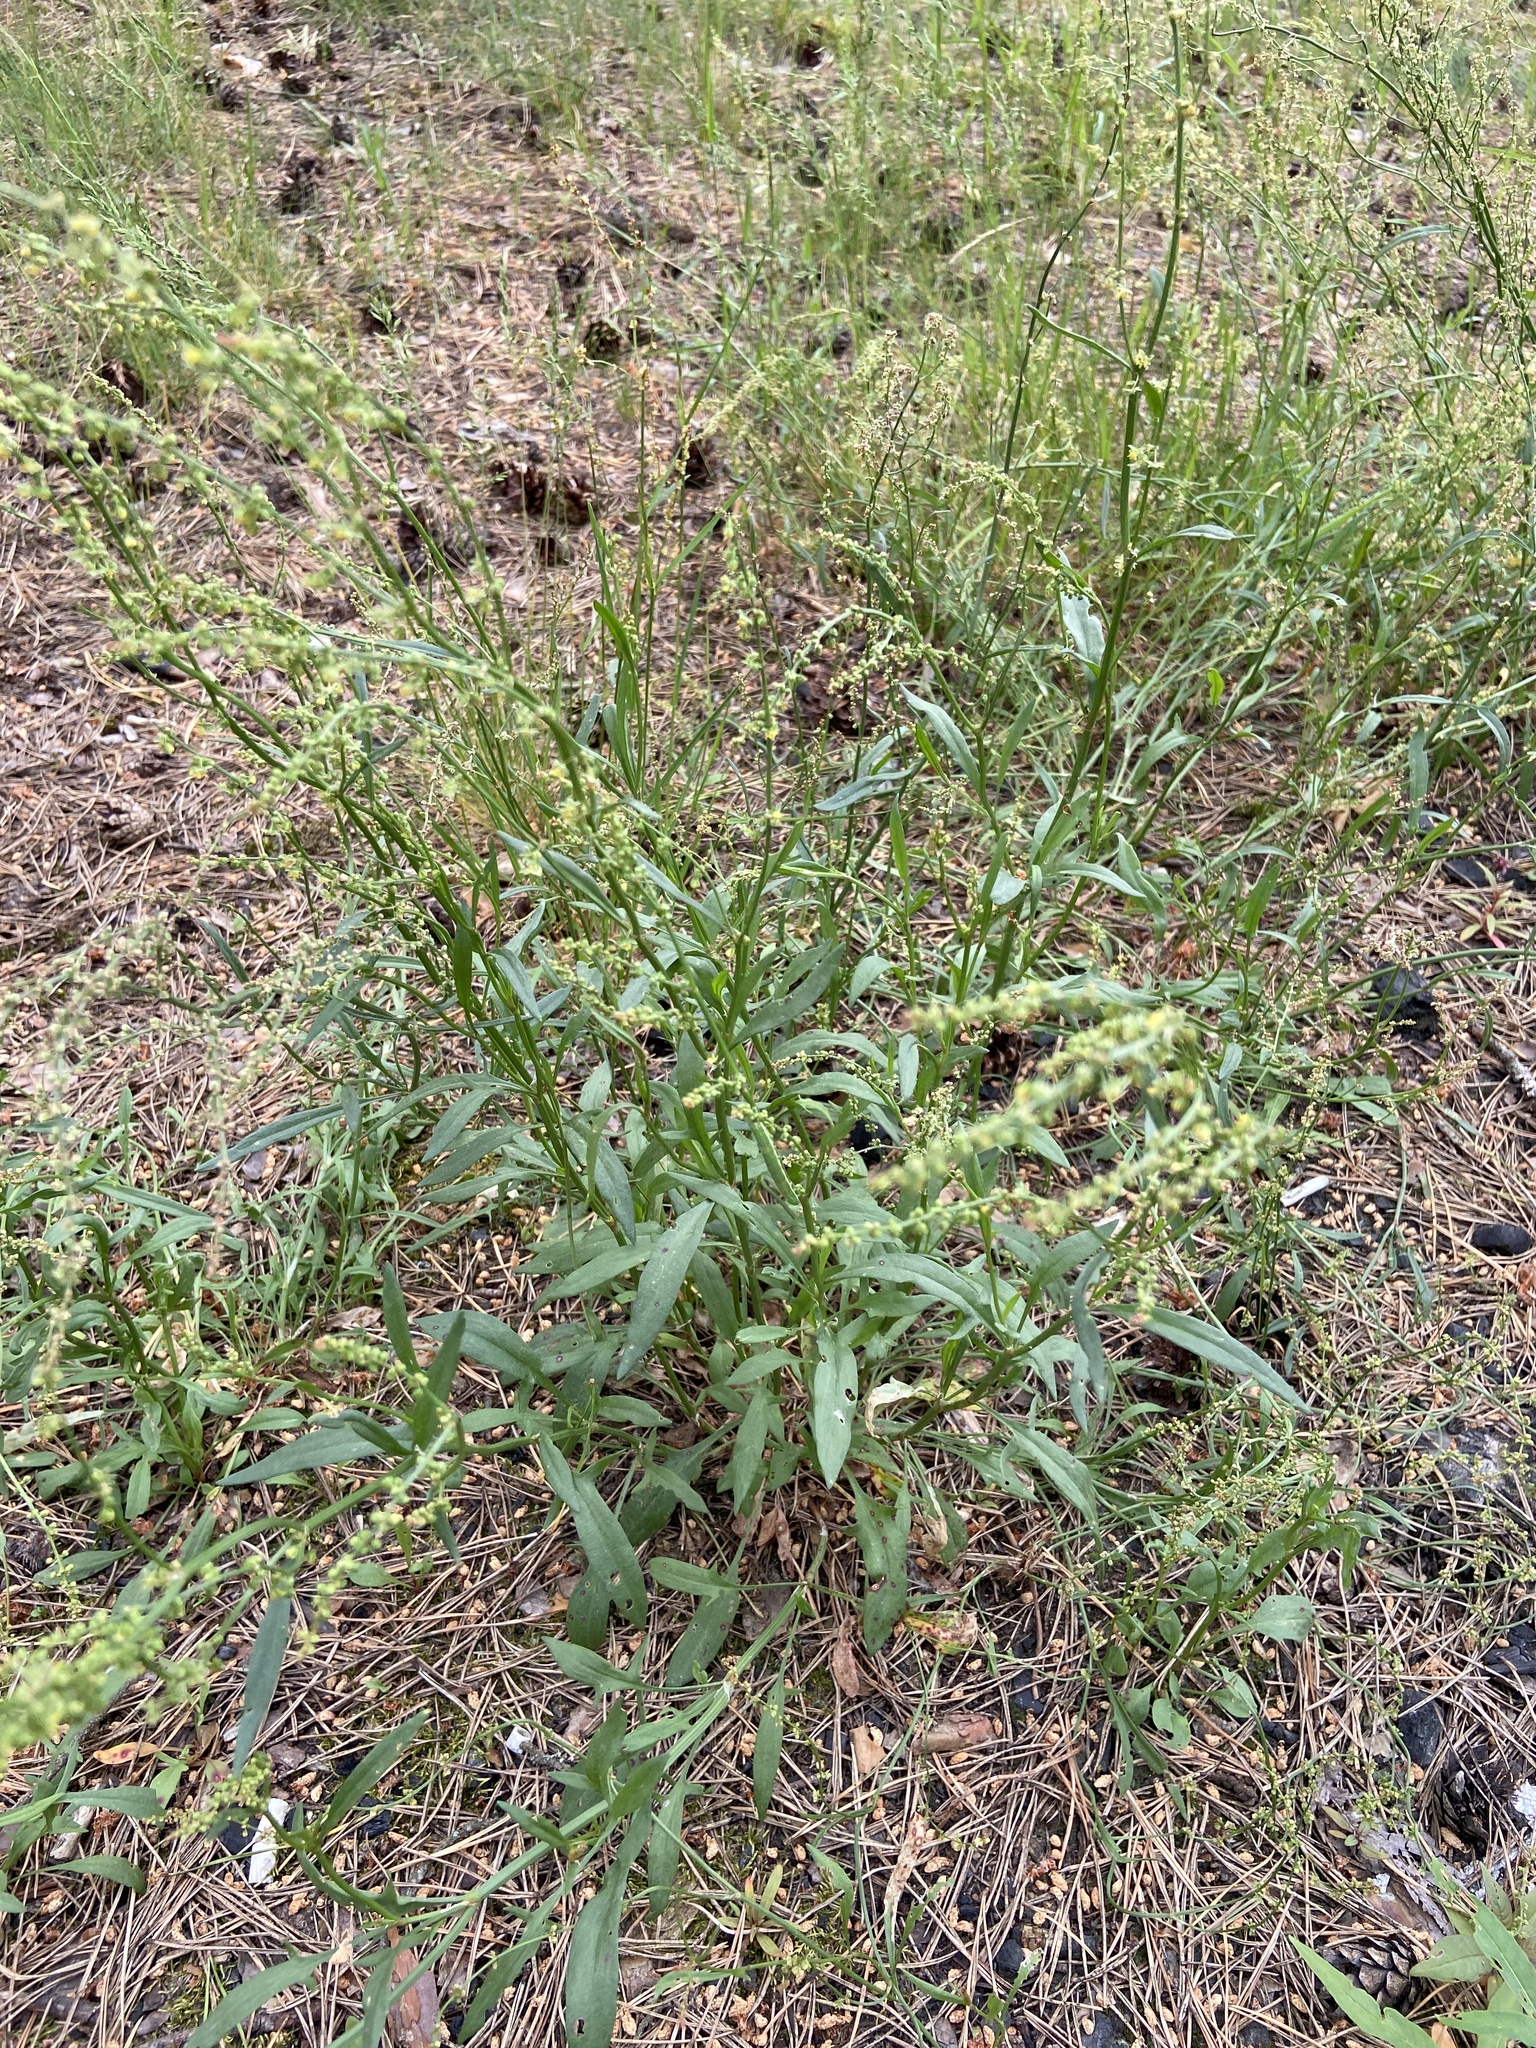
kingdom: Plantae
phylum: Tracheophyta
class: Magnoliopsida
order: Caryophyllales
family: Polygonaceae
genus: Rumex
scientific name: Rumex acetosella
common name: Common sheep sorrel
